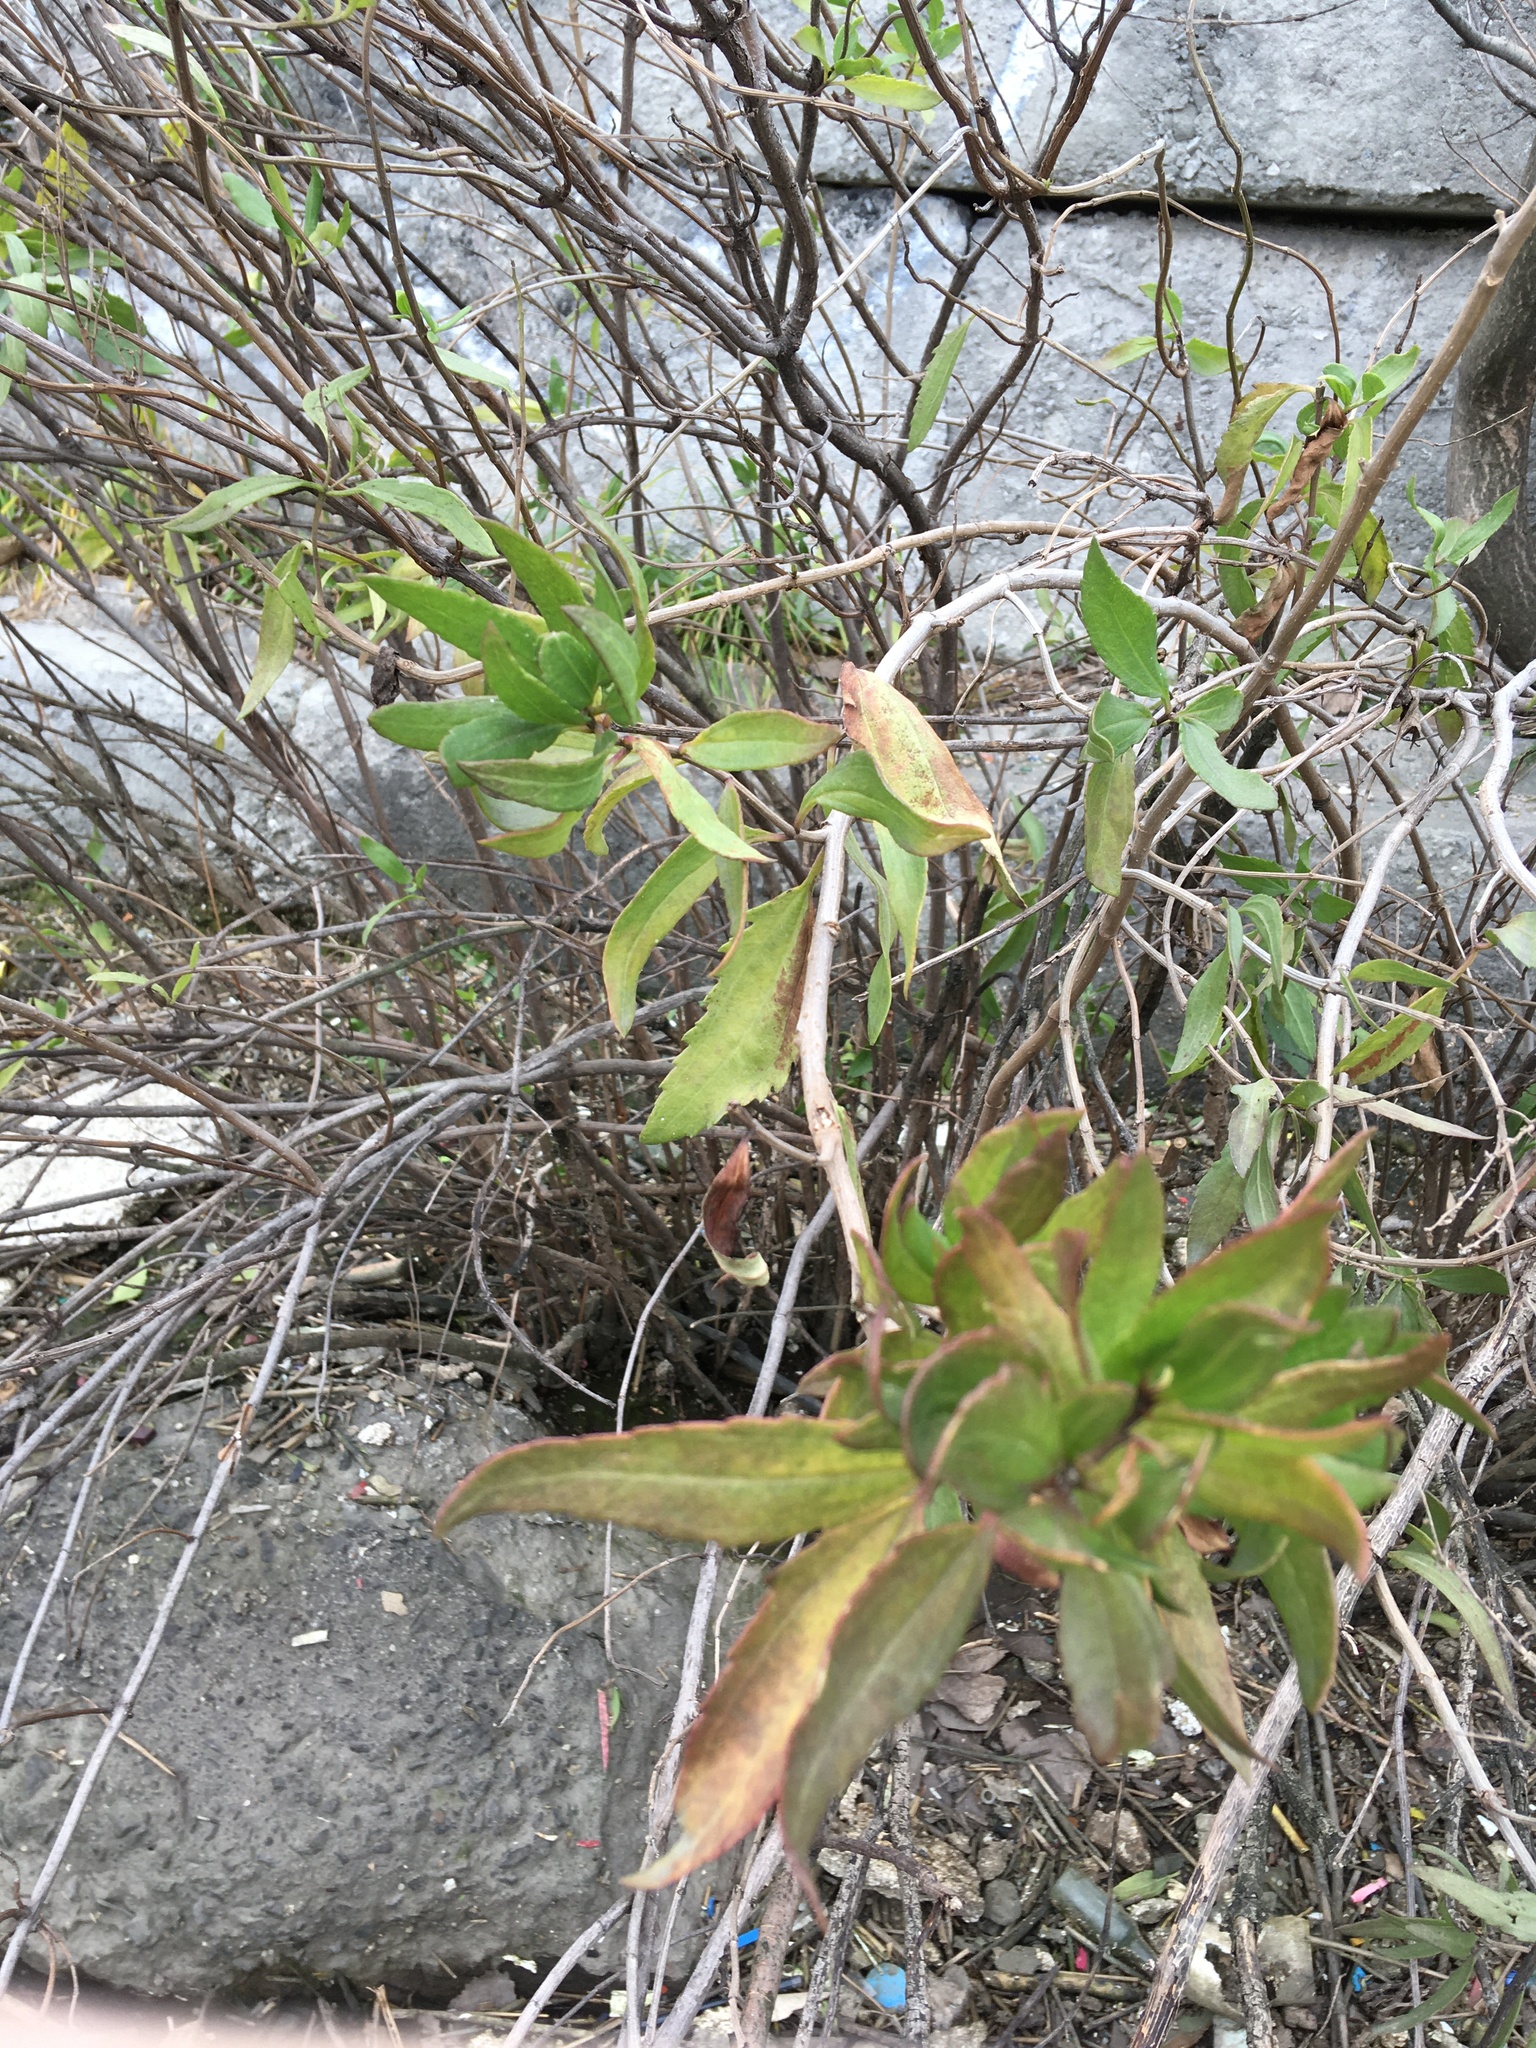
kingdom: Plantae
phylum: Tracheophyta
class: Magnoliopsida
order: Asterales
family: Asteraceae
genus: Iva
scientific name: Iva frutescens
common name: Big-leaved marsh-elder
